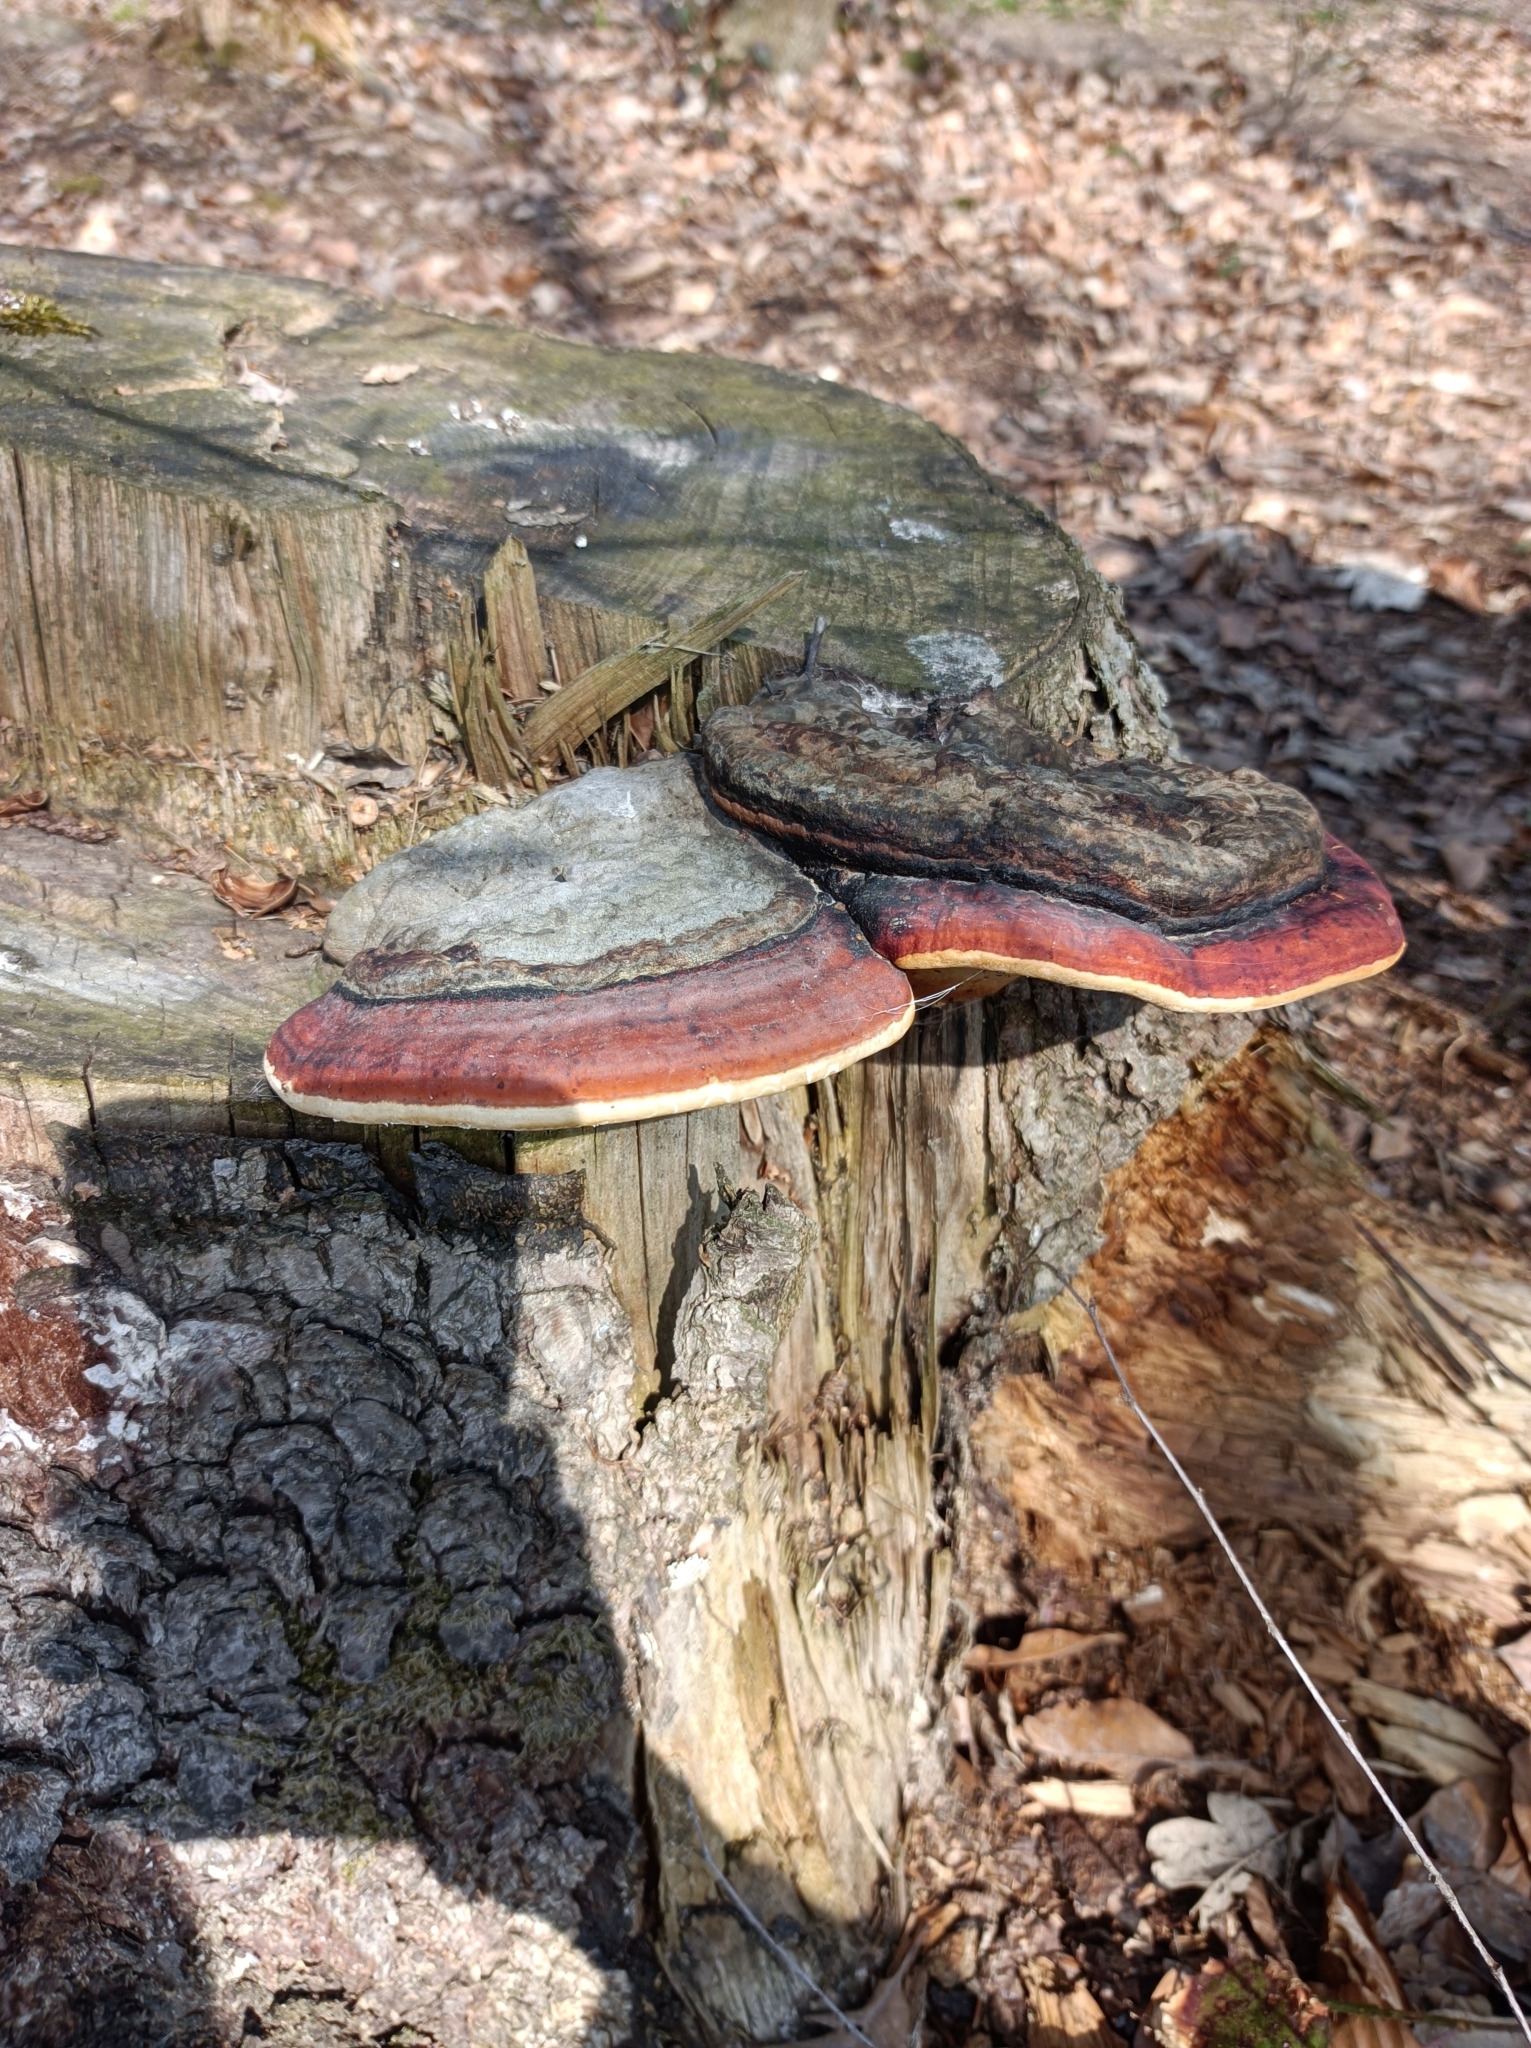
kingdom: Fungi
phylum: Basidiomycota
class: Agaricomycetes
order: Polyporales
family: Fomitopsidaceae
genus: Fomitopsis
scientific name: Fomitopsis pinicola
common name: Red-belted bracket
